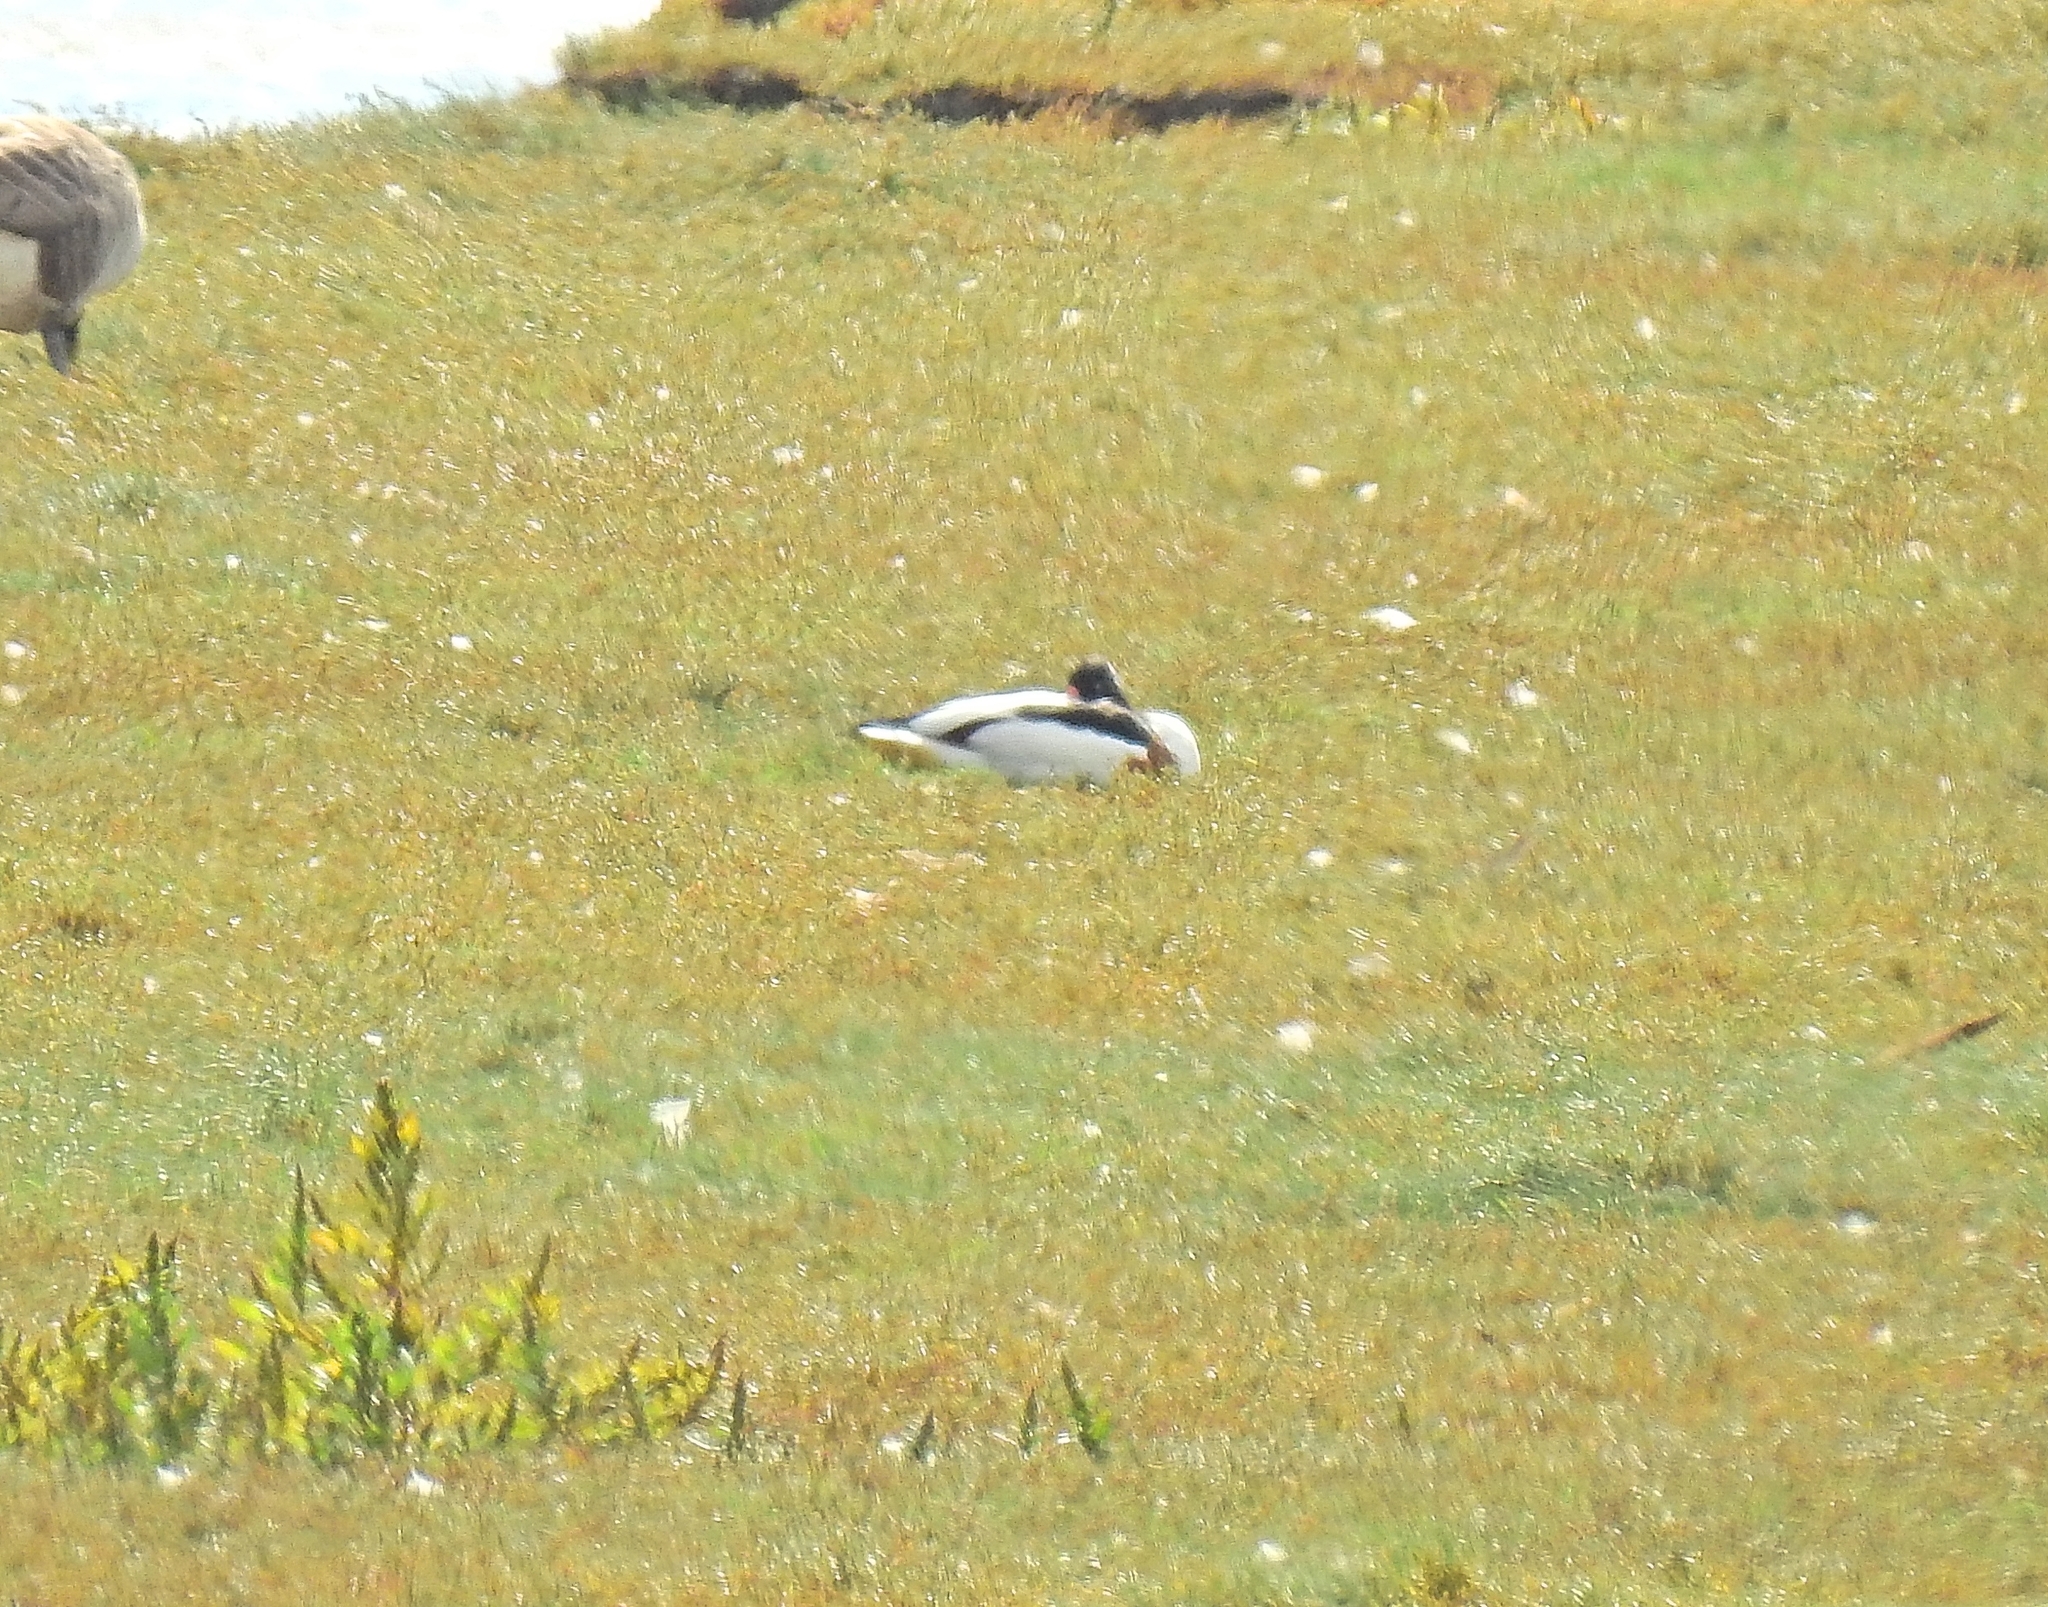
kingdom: Animalia
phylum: Chordata
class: Aves
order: Anseriformes
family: Anatidae
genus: Tadorna
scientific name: Tadorna tadorna
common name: Common shelduck
